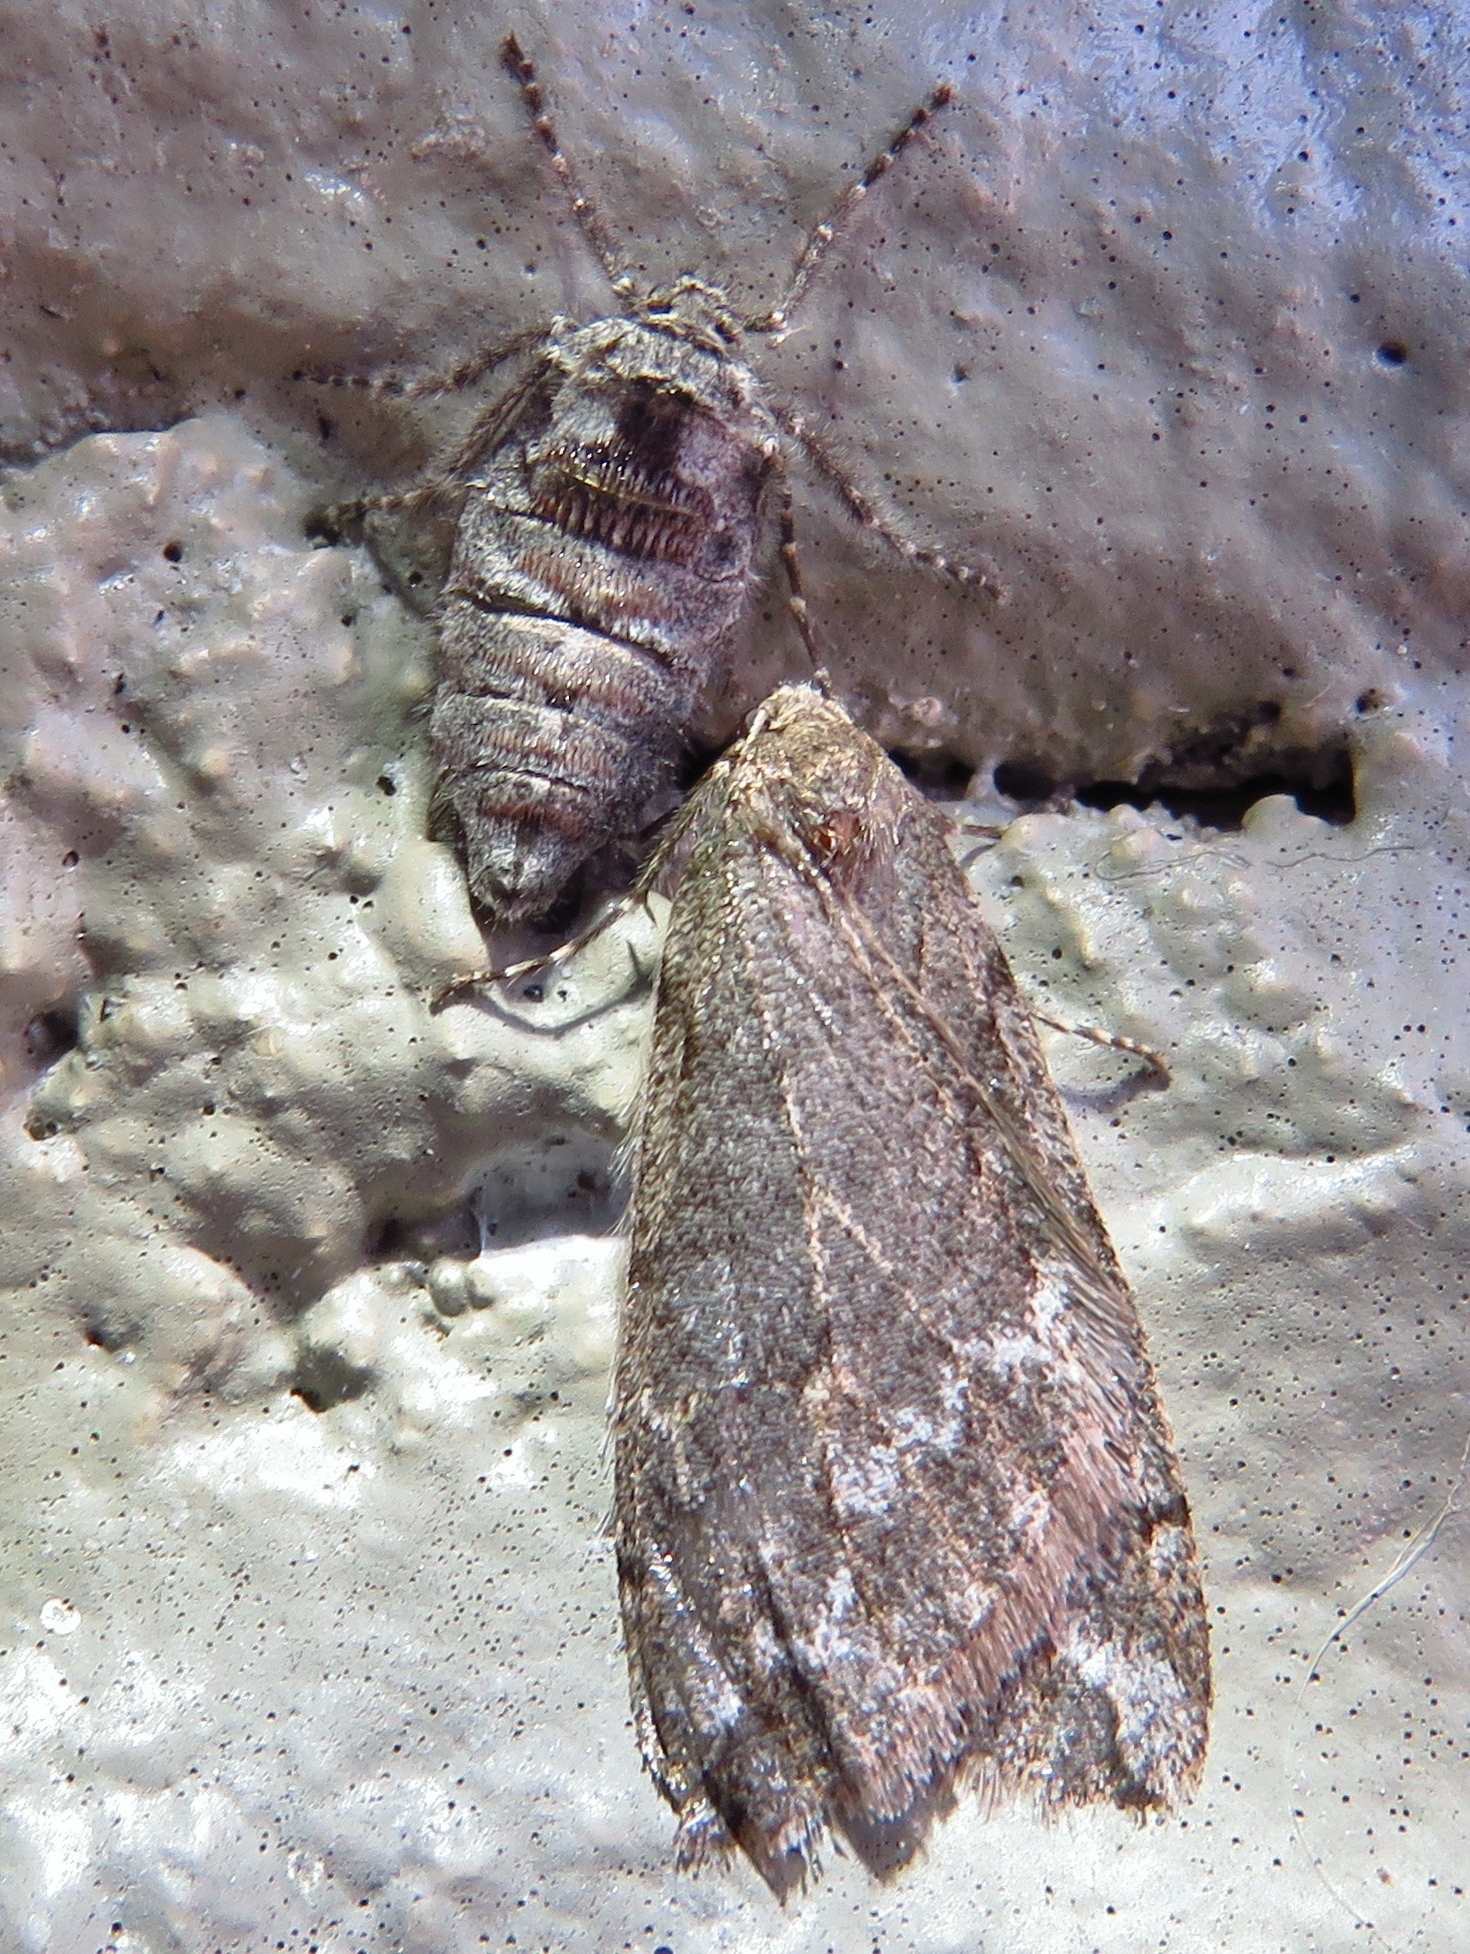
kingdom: Animalia
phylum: Arthropoda
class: Insecta
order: Lepidoptera
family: Geometridae
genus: Paleacrita
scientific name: Paleacrita vernata
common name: Spring cankerworm
